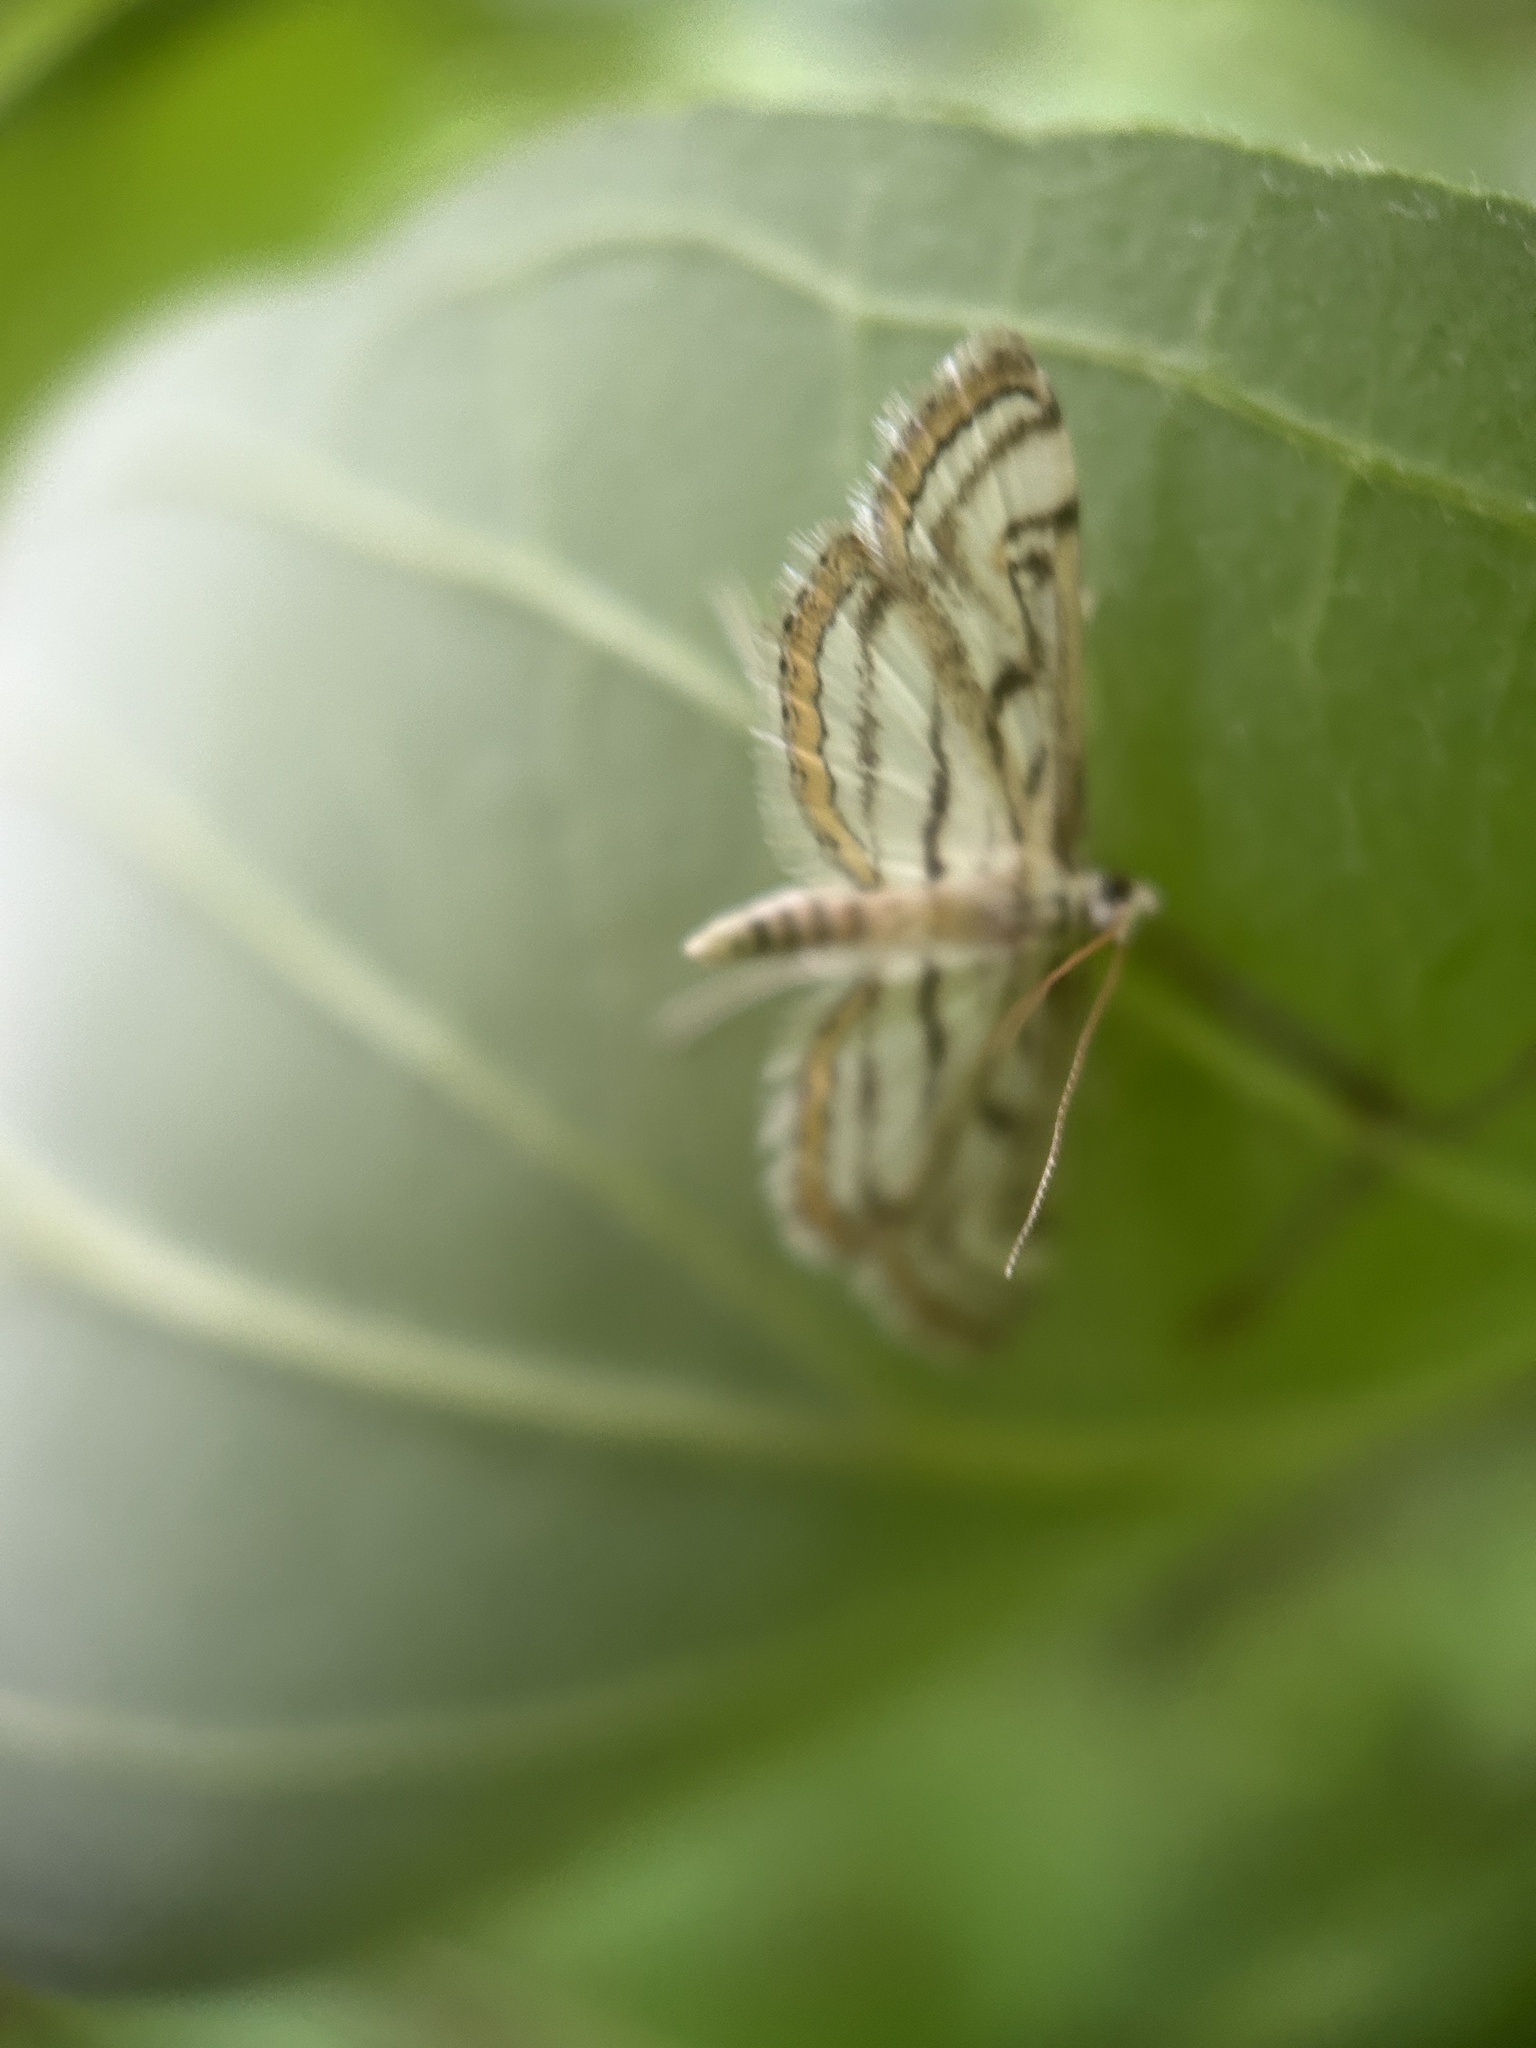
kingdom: Animalia
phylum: Arthropoda
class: Insecta
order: Lepidoptera
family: Crambidae
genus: Parapoynx
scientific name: Parapoynx badiusalis
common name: Chestnut-marked pondweed moth
